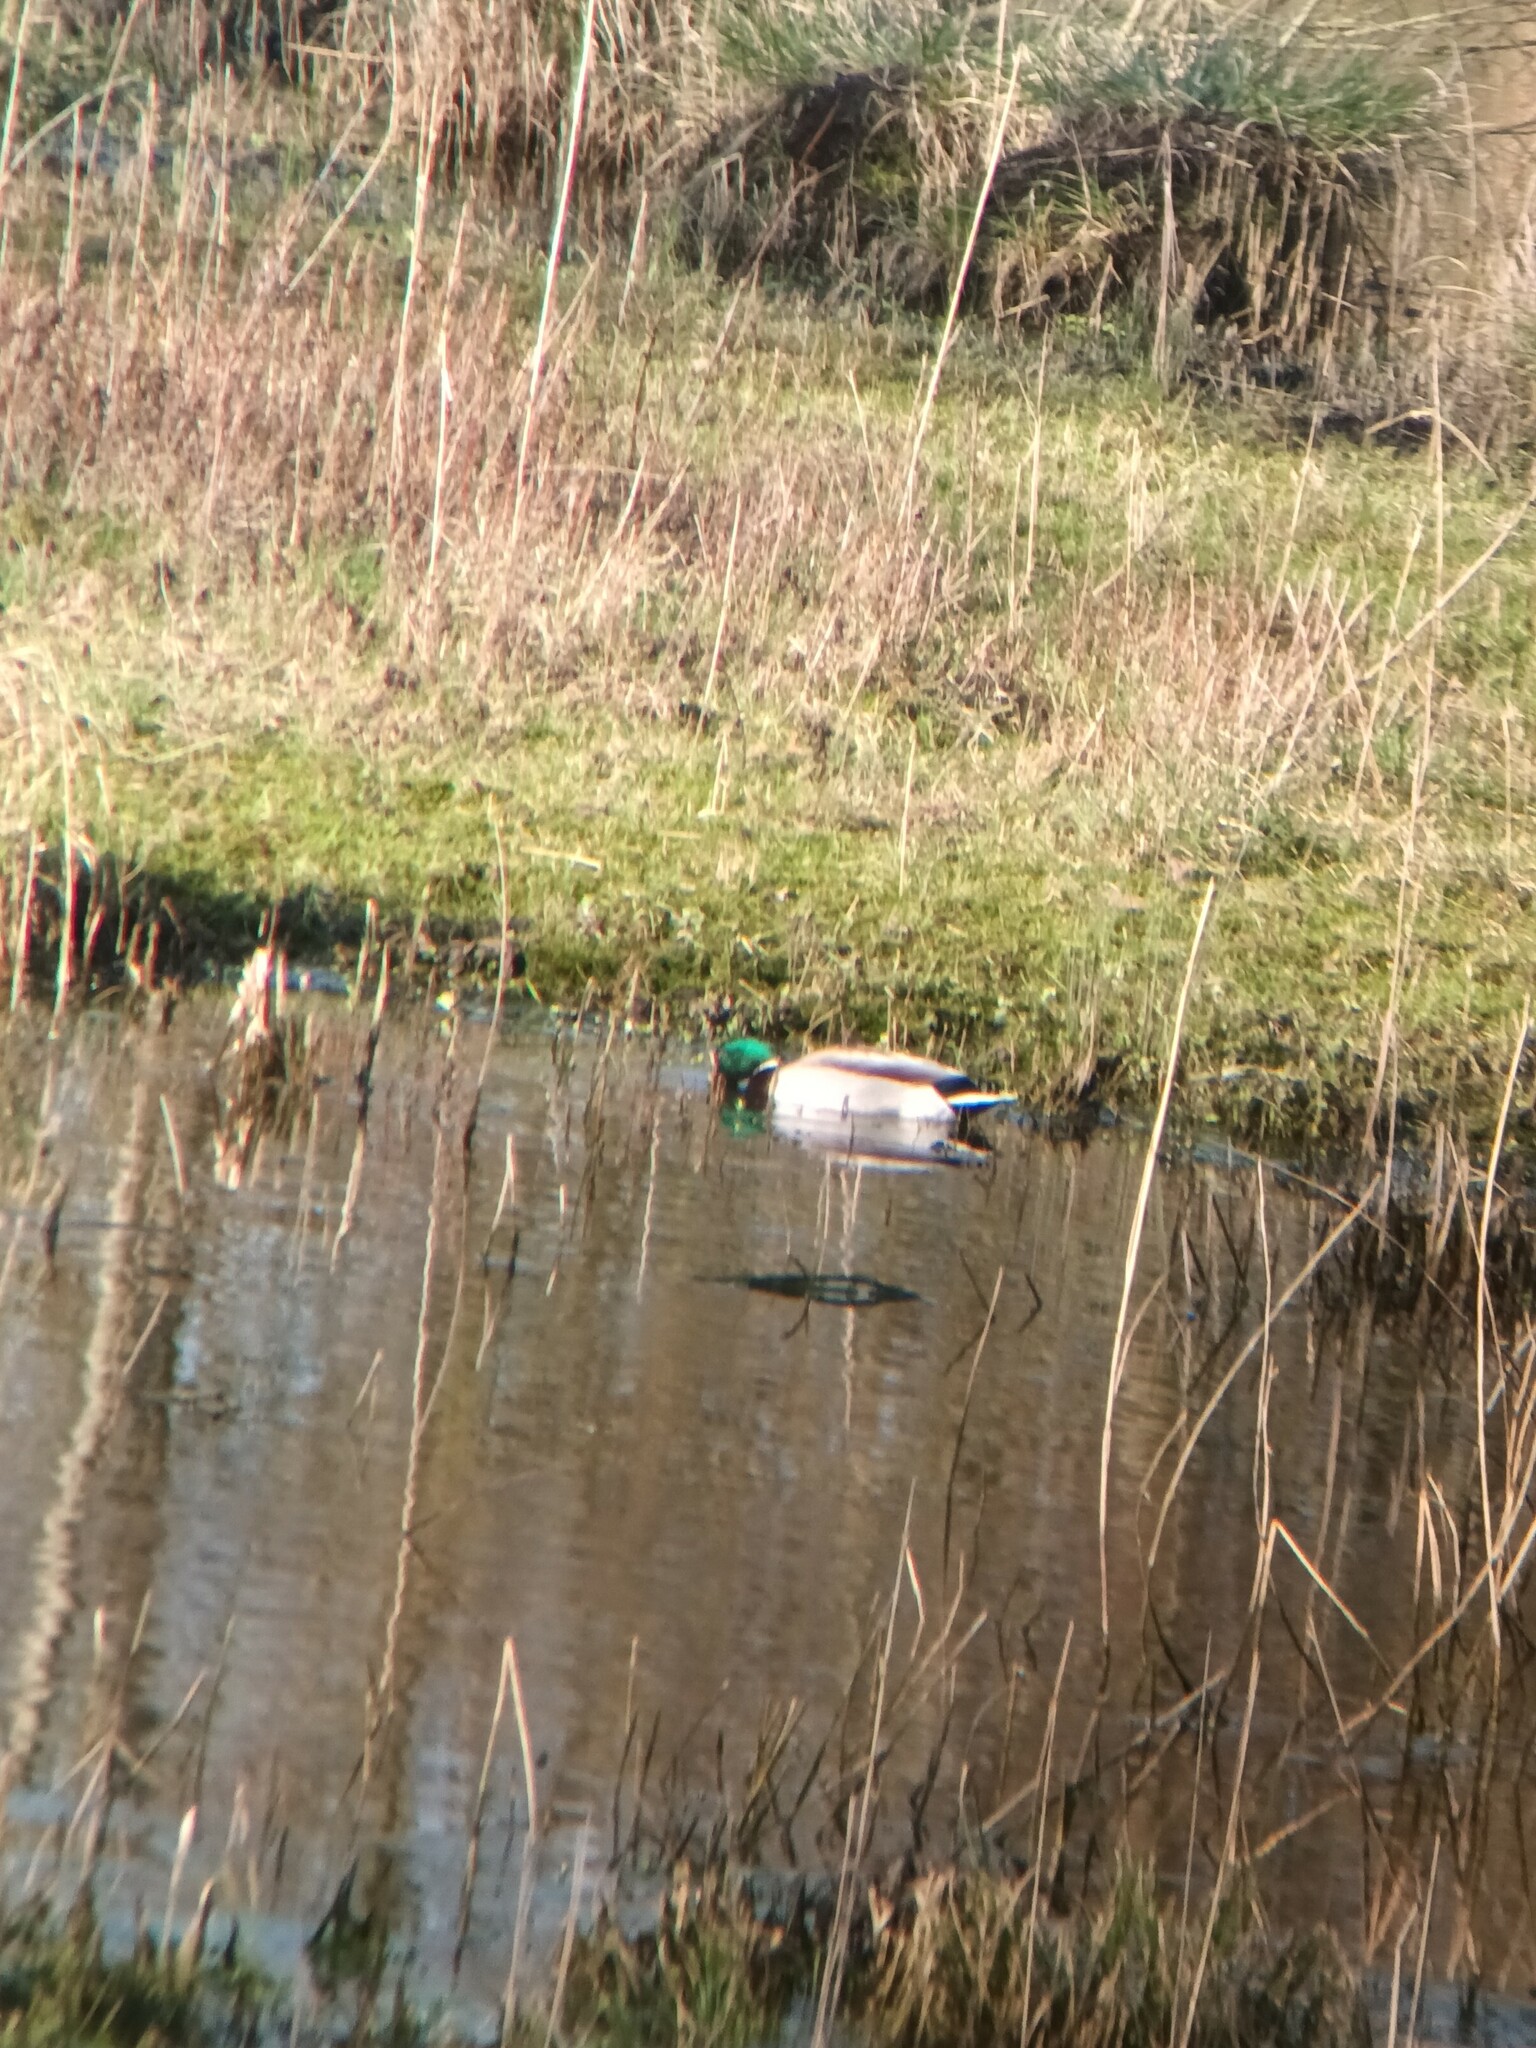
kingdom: Animalia
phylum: Chordata
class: Aves
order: Anseriformes
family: Anatidae
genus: Anas
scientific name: Anas platyrhynchos
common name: Mallard
